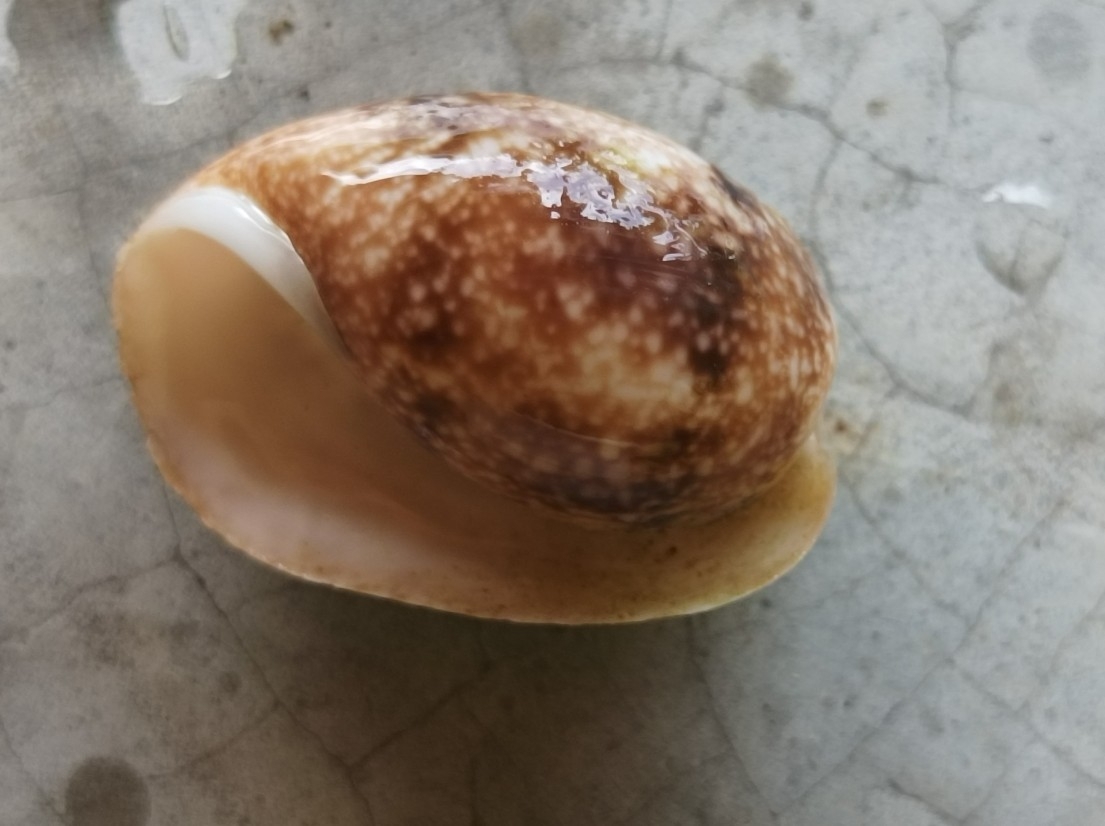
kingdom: Animalia
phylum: Mollusca
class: Gastropoda
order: Cephalaspidea
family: Bullidae
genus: Bulla
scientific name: Bulla ampulla
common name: Ampulle bubble
